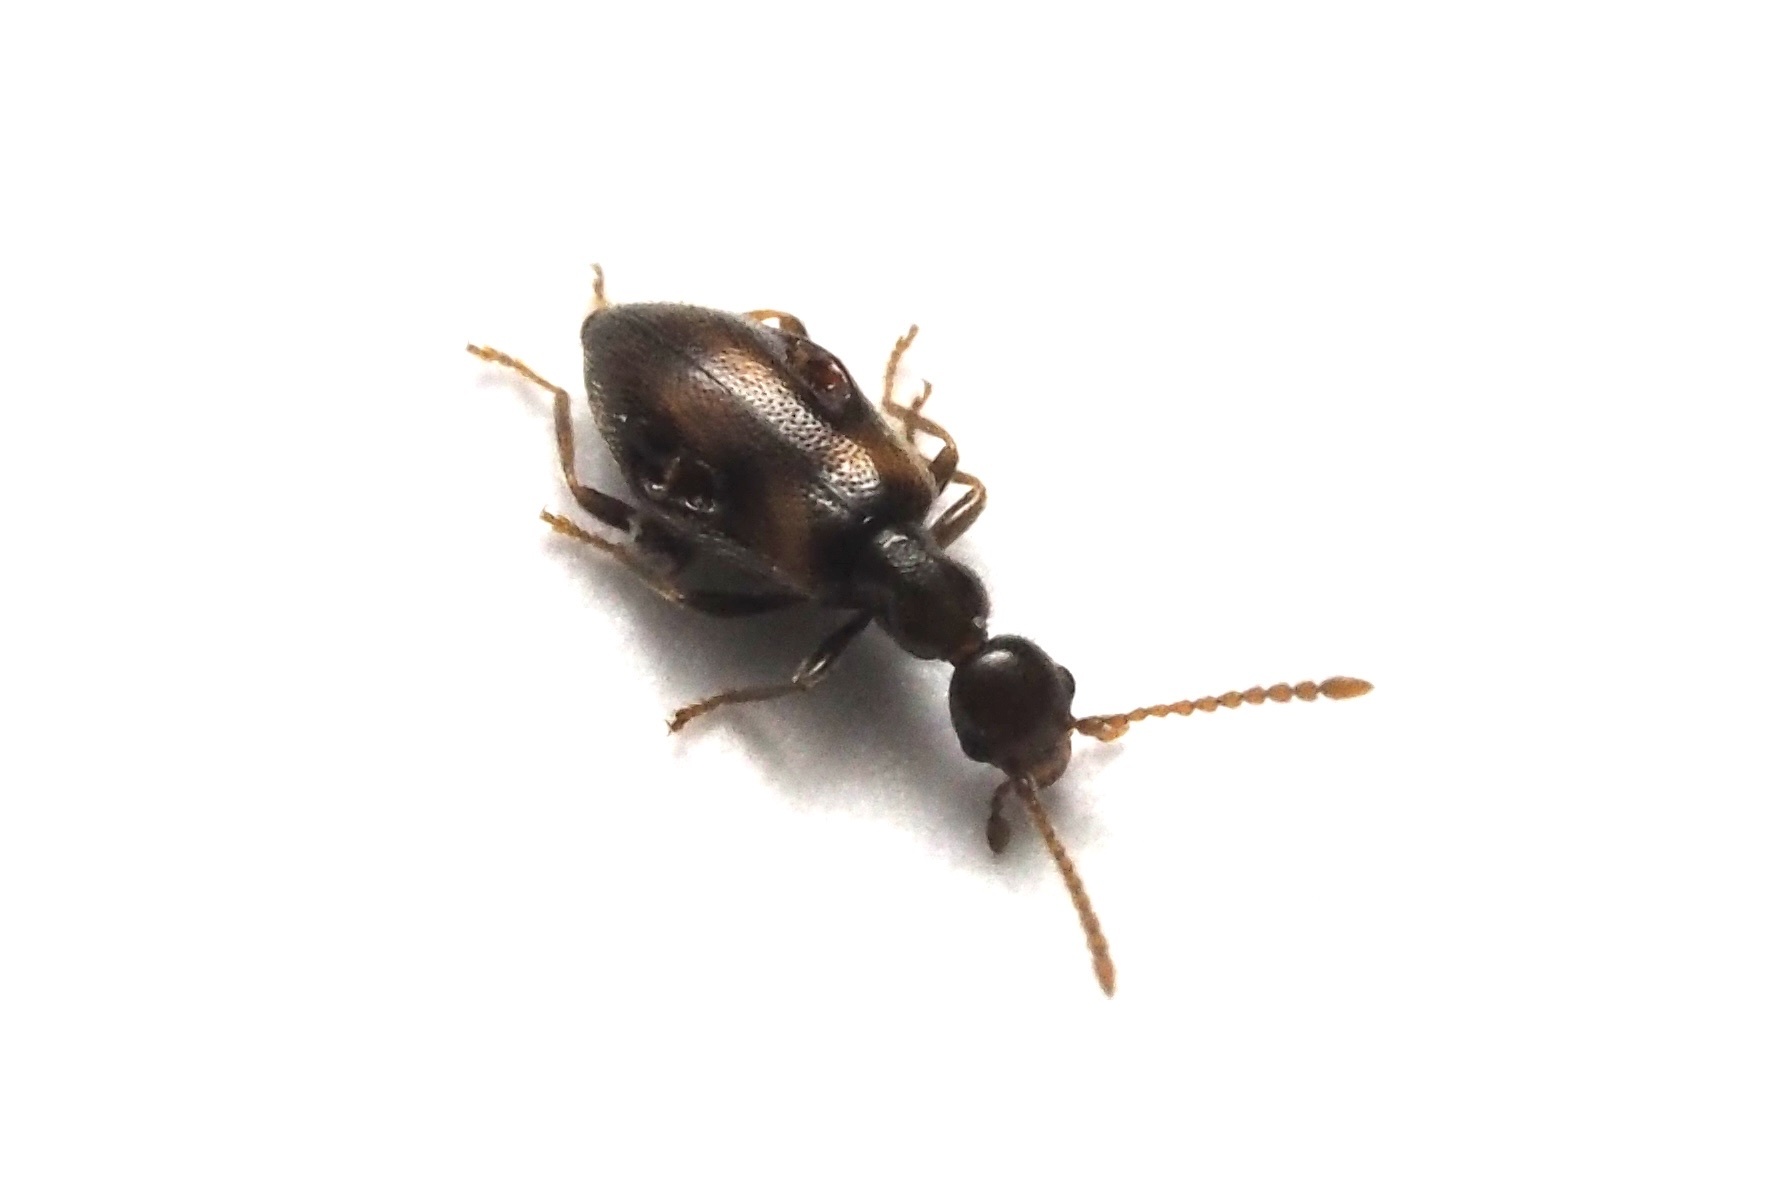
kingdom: Animalia
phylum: Arthropoda
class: Insecta
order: Coleoptera
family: Anthicidae
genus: Microhoria
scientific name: Microhoria
